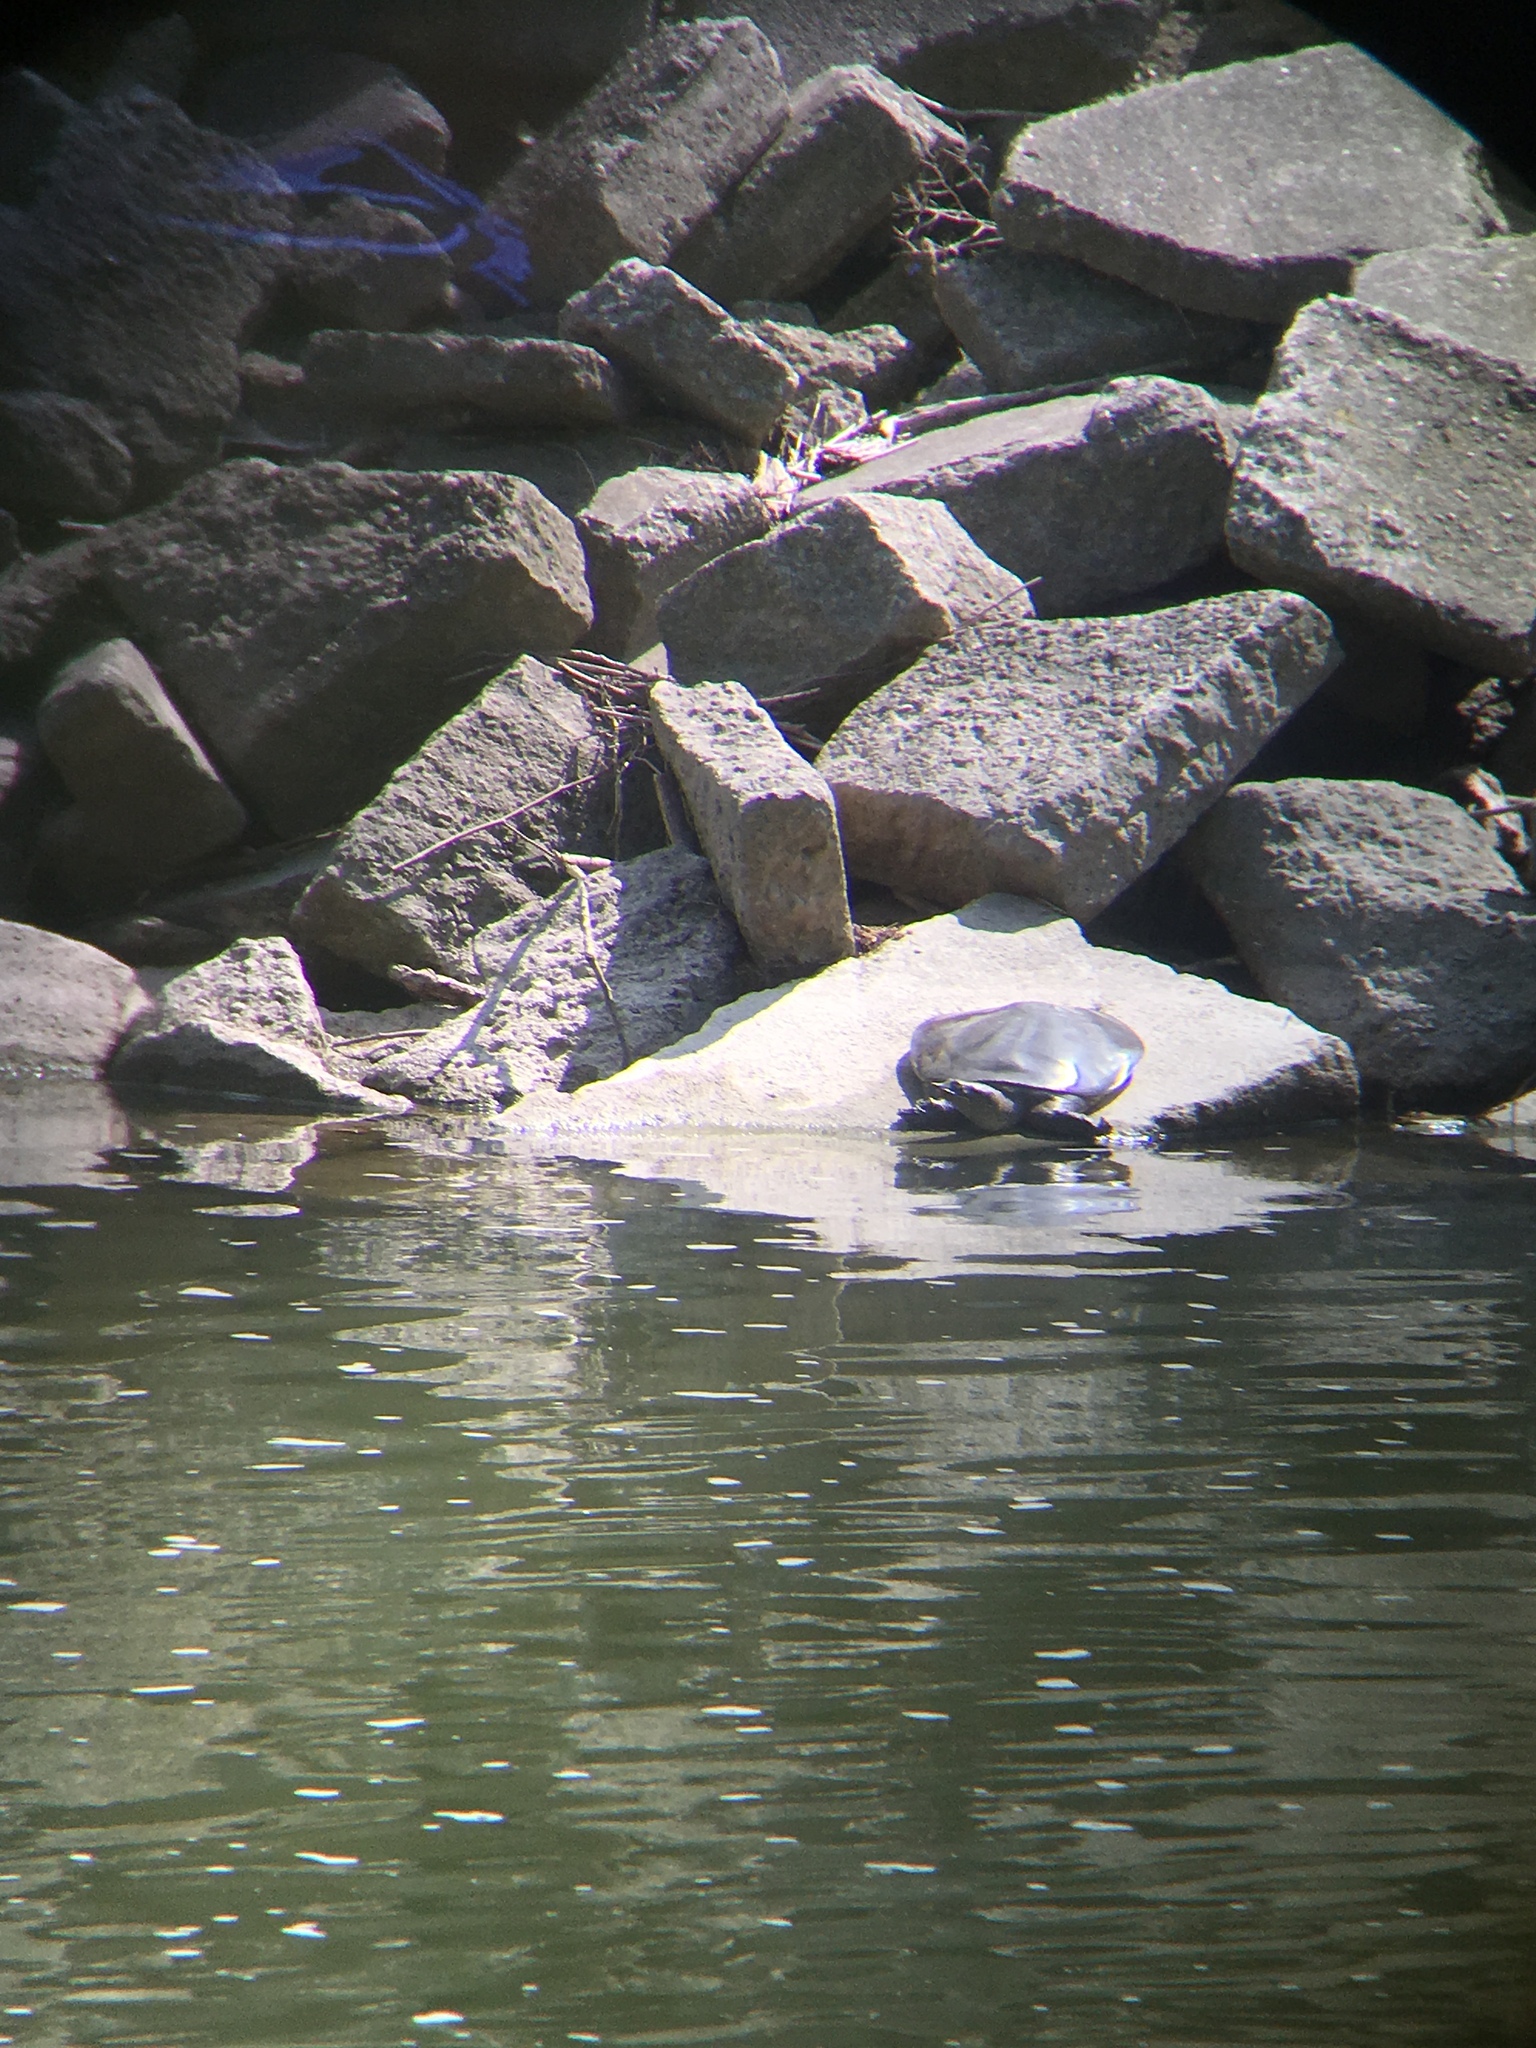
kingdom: Animalia
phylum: Chordata
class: Testudines
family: Trionychidae
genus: Apalone
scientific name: Apalone spinifera
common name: Spiny softshell turtle
